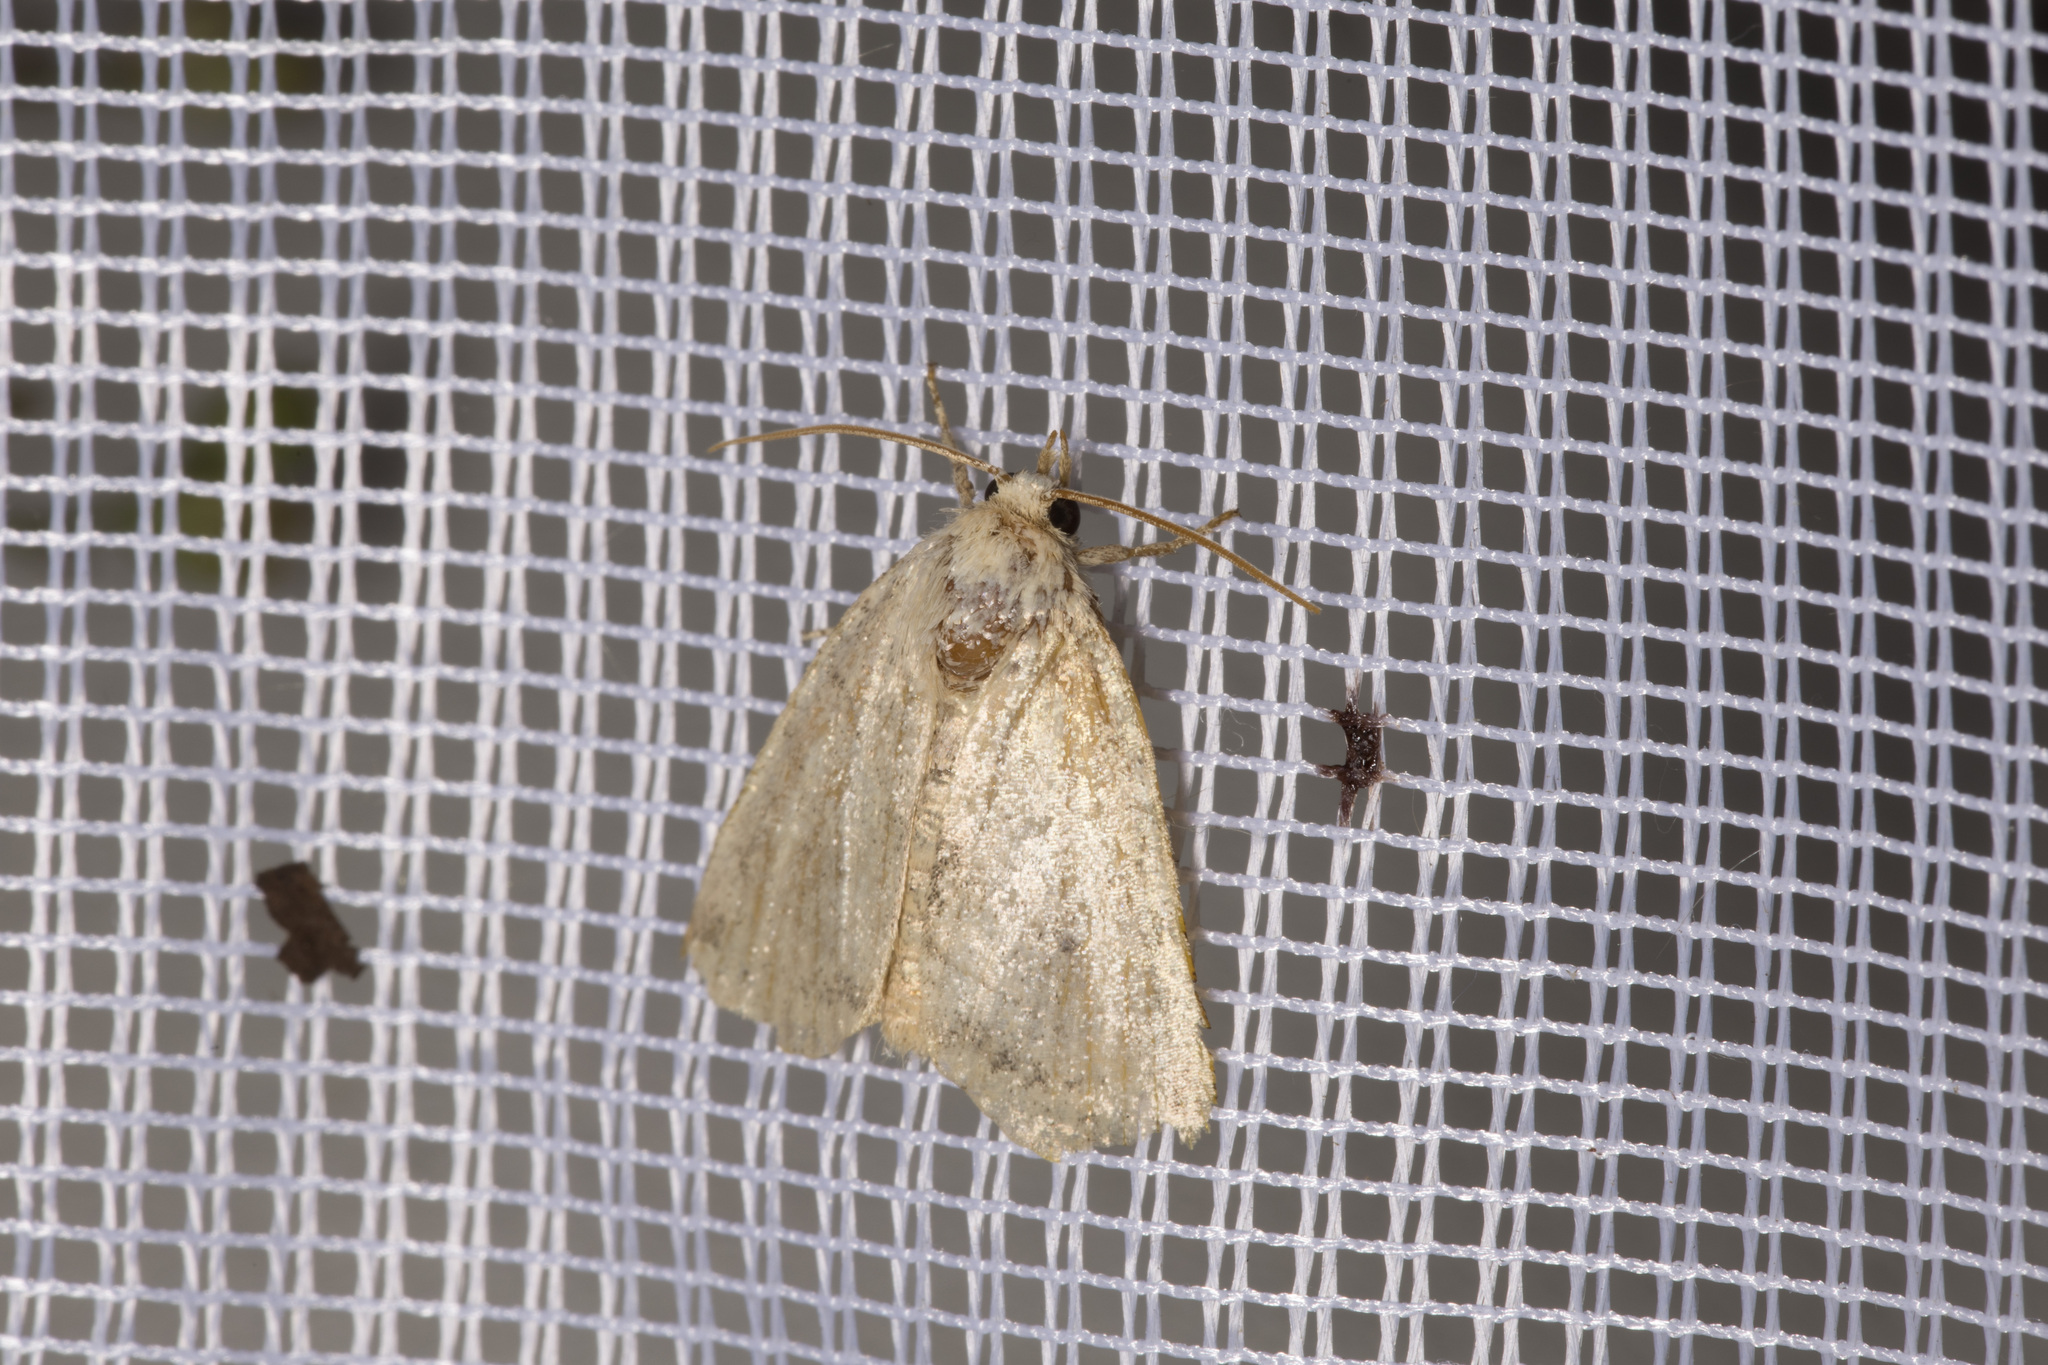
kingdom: Animalia
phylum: Arthropoda
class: Insecta
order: Lepidoptera
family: Noctuidae
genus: Cosmia
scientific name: Cosmia trapezina
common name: Dun-bar
